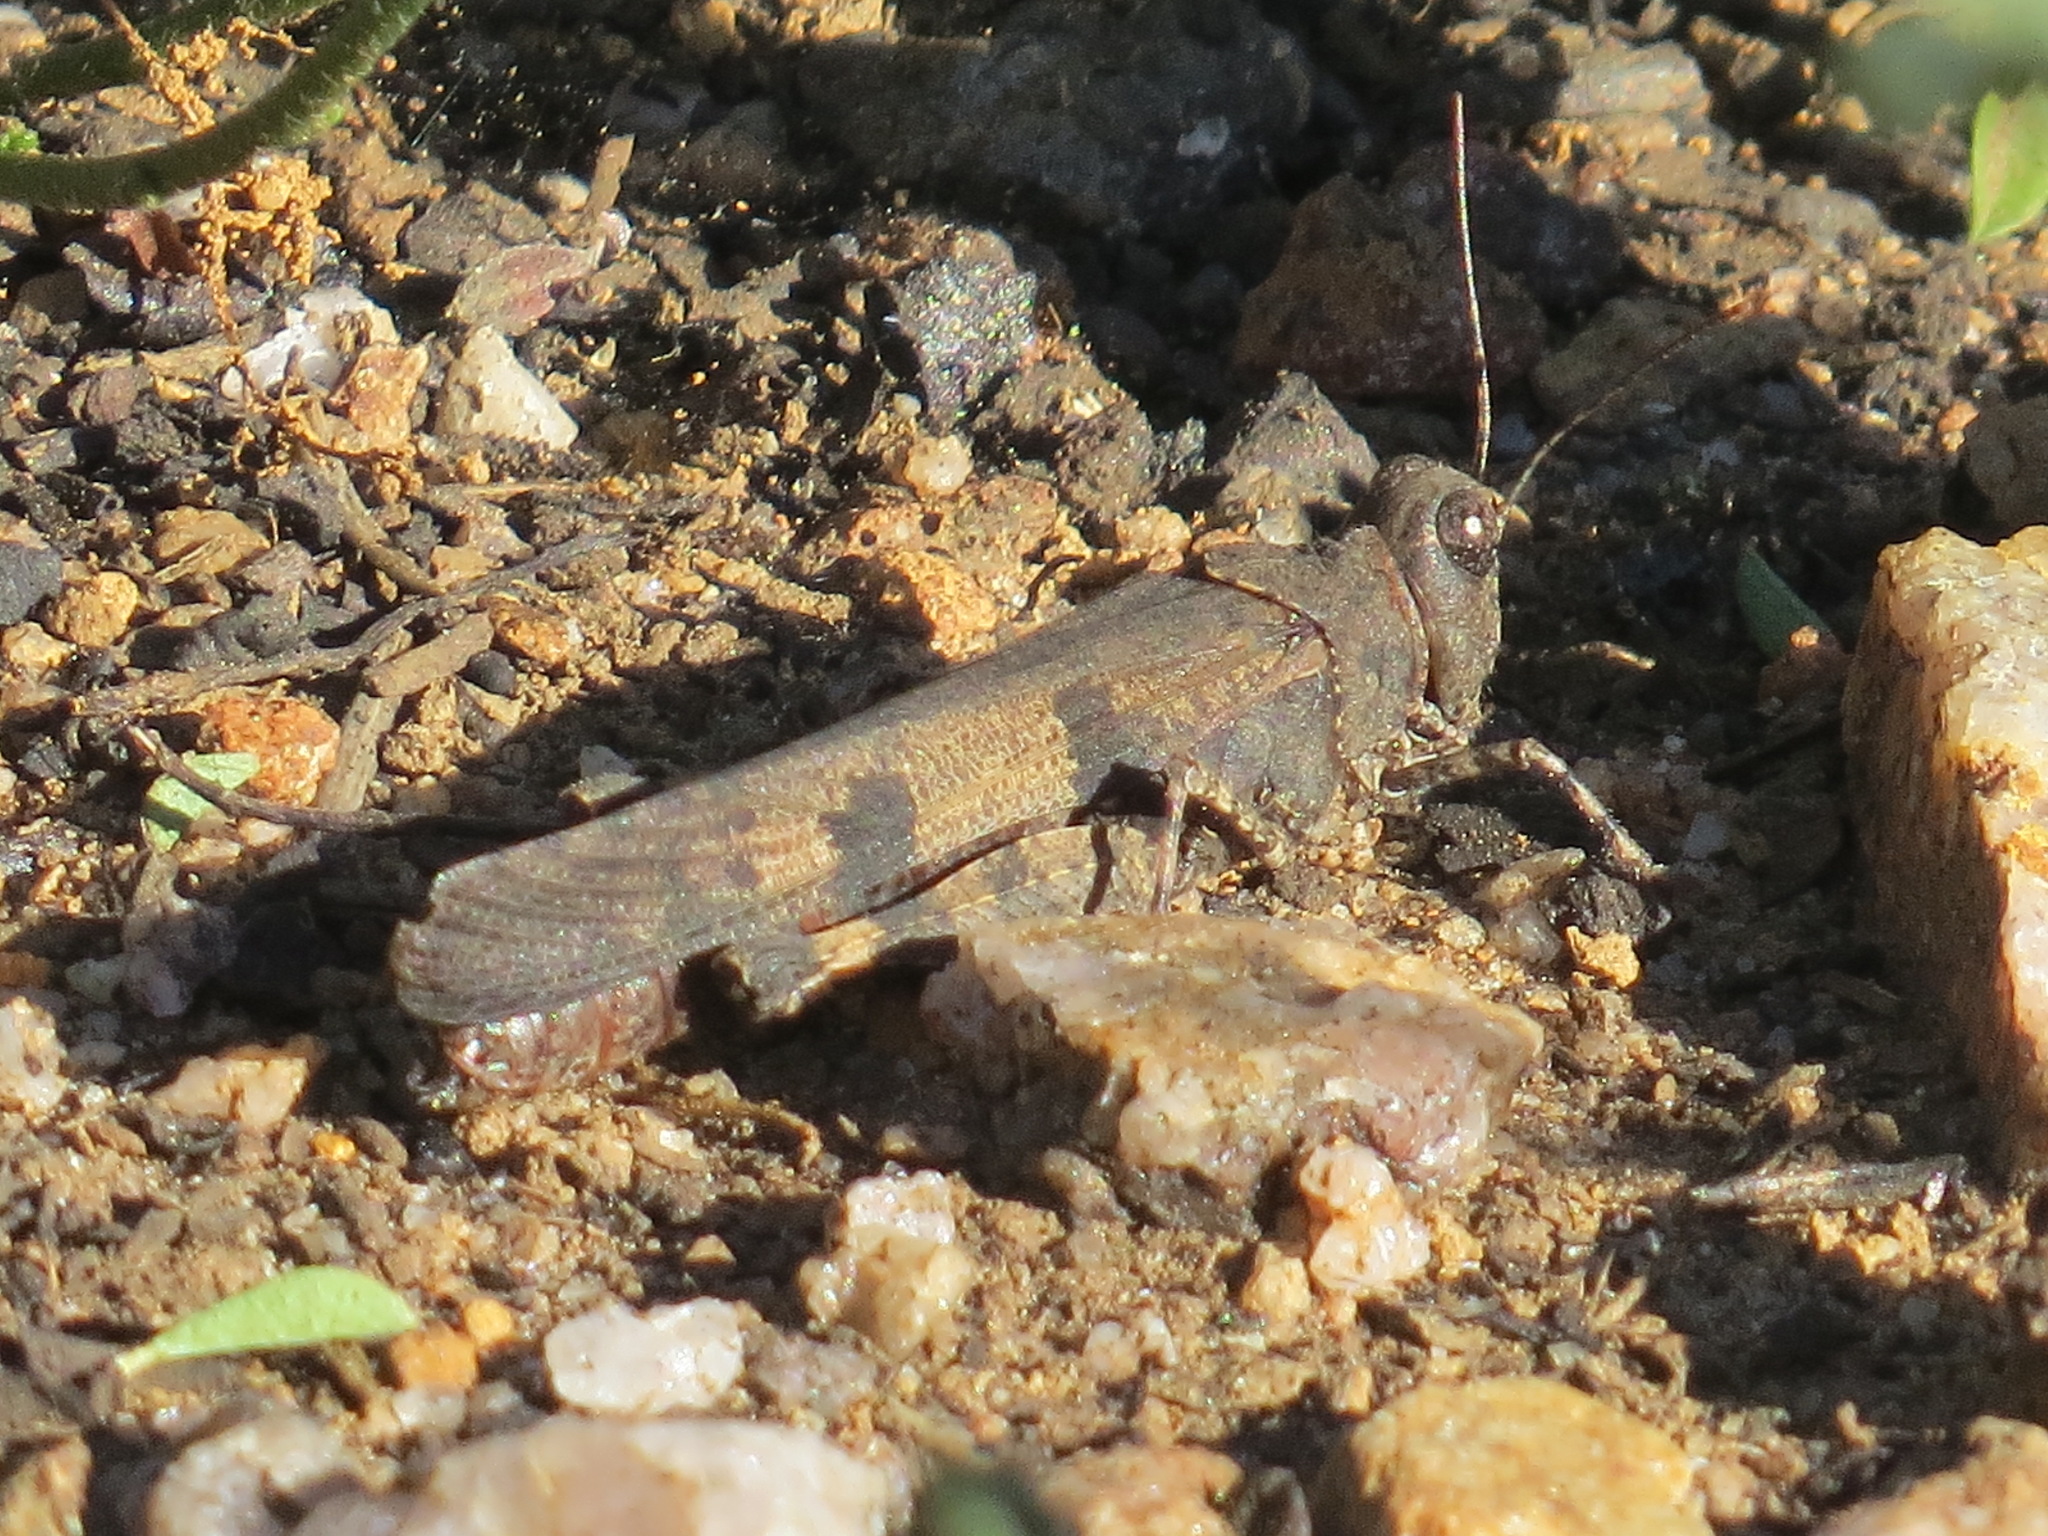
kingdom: Animalia
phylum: Arthropoda
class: Insecta
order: Orthoptera
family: Acrididae
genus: Trimerotropis
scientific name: Trimerotropis fontana
